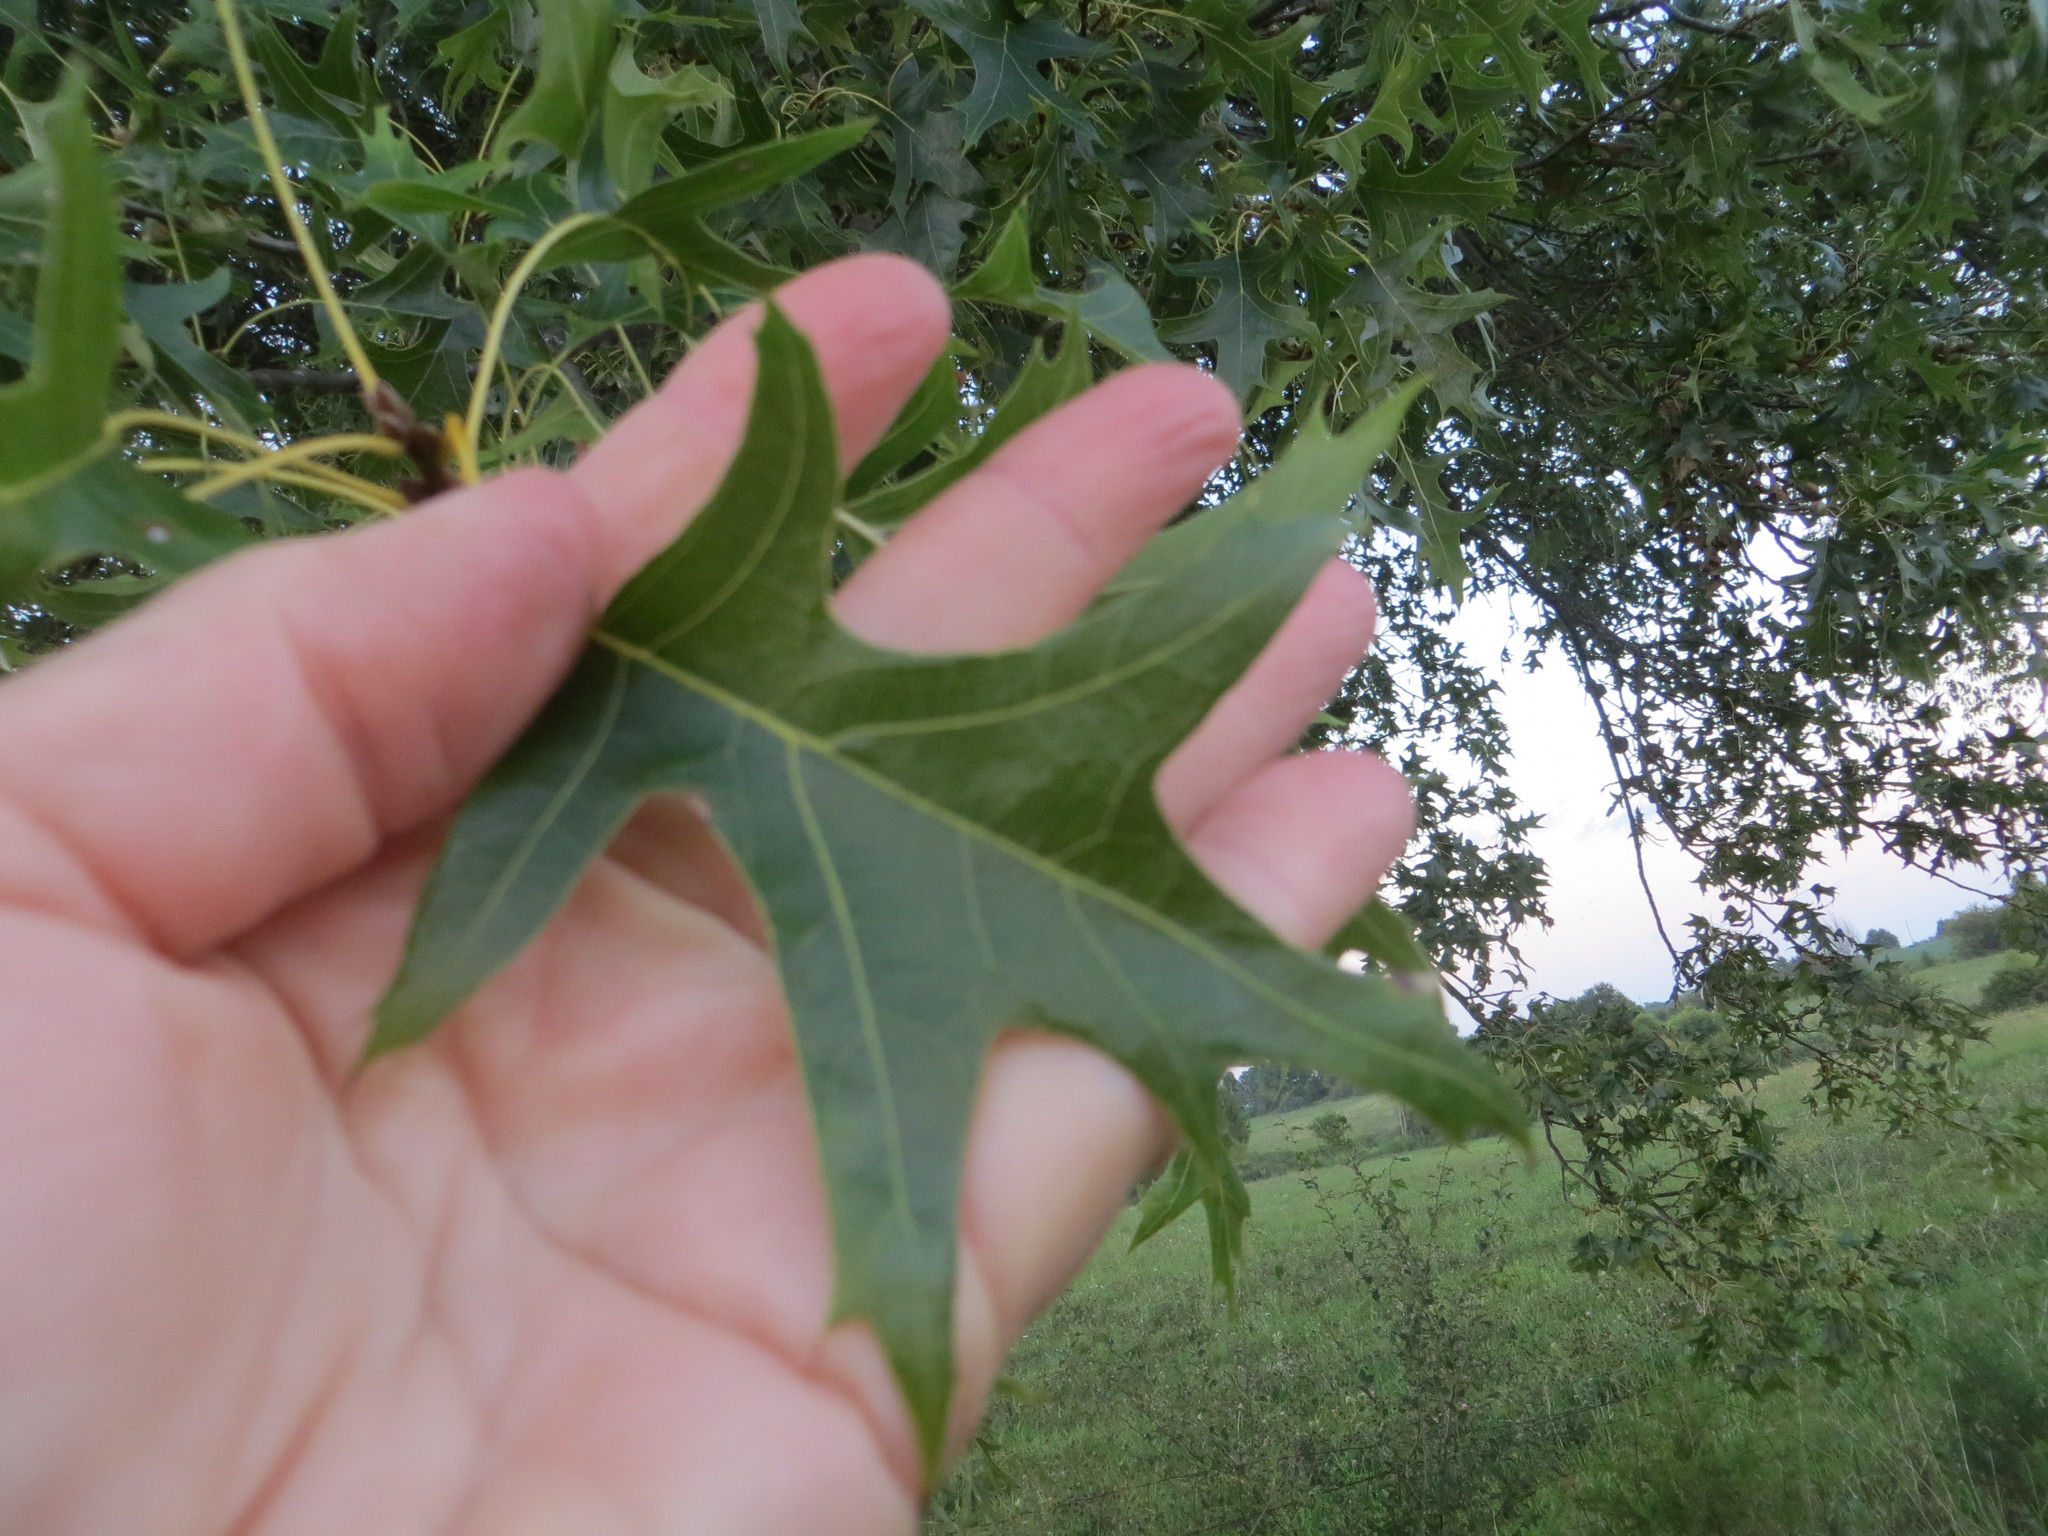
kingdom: Plantae
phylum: Tracheophyta
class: Magnoliopsida
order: Fagales
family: Fagaceae
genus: Quercus
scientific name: Quercus palustris
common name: Pin oak
